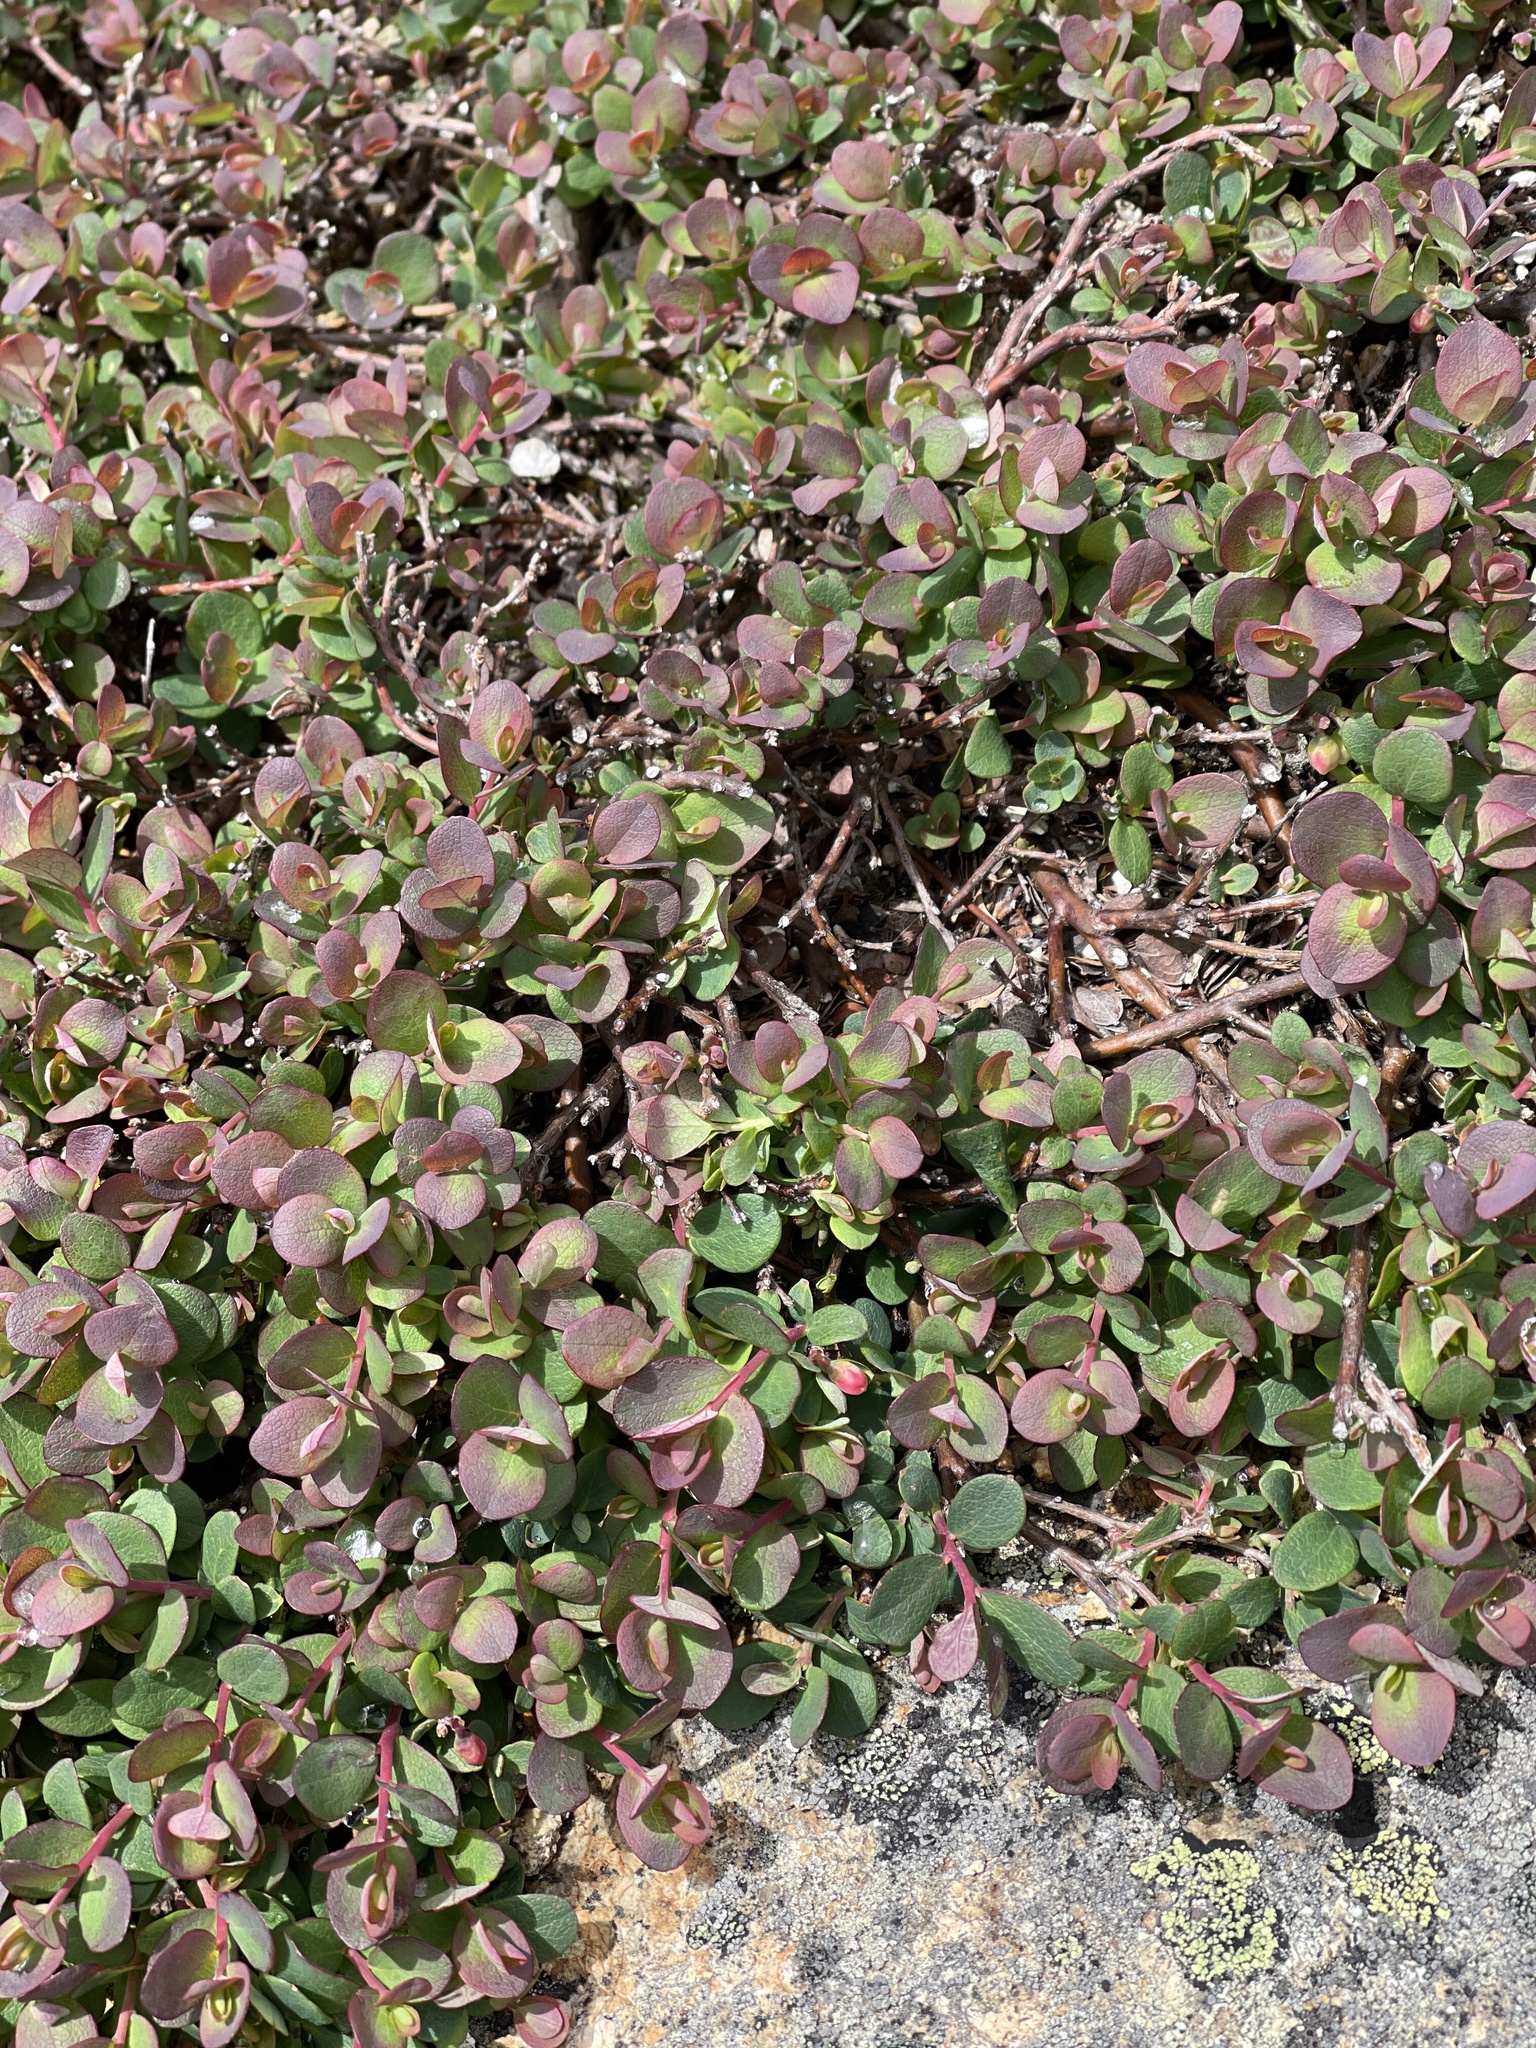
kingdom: Plantae
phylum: Tracheophyta
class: Magnoliopsida
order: Ericales
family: Ericaceae
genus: Vaccinium
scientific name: Vaccinium uliginosum
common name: Bog bilberry
